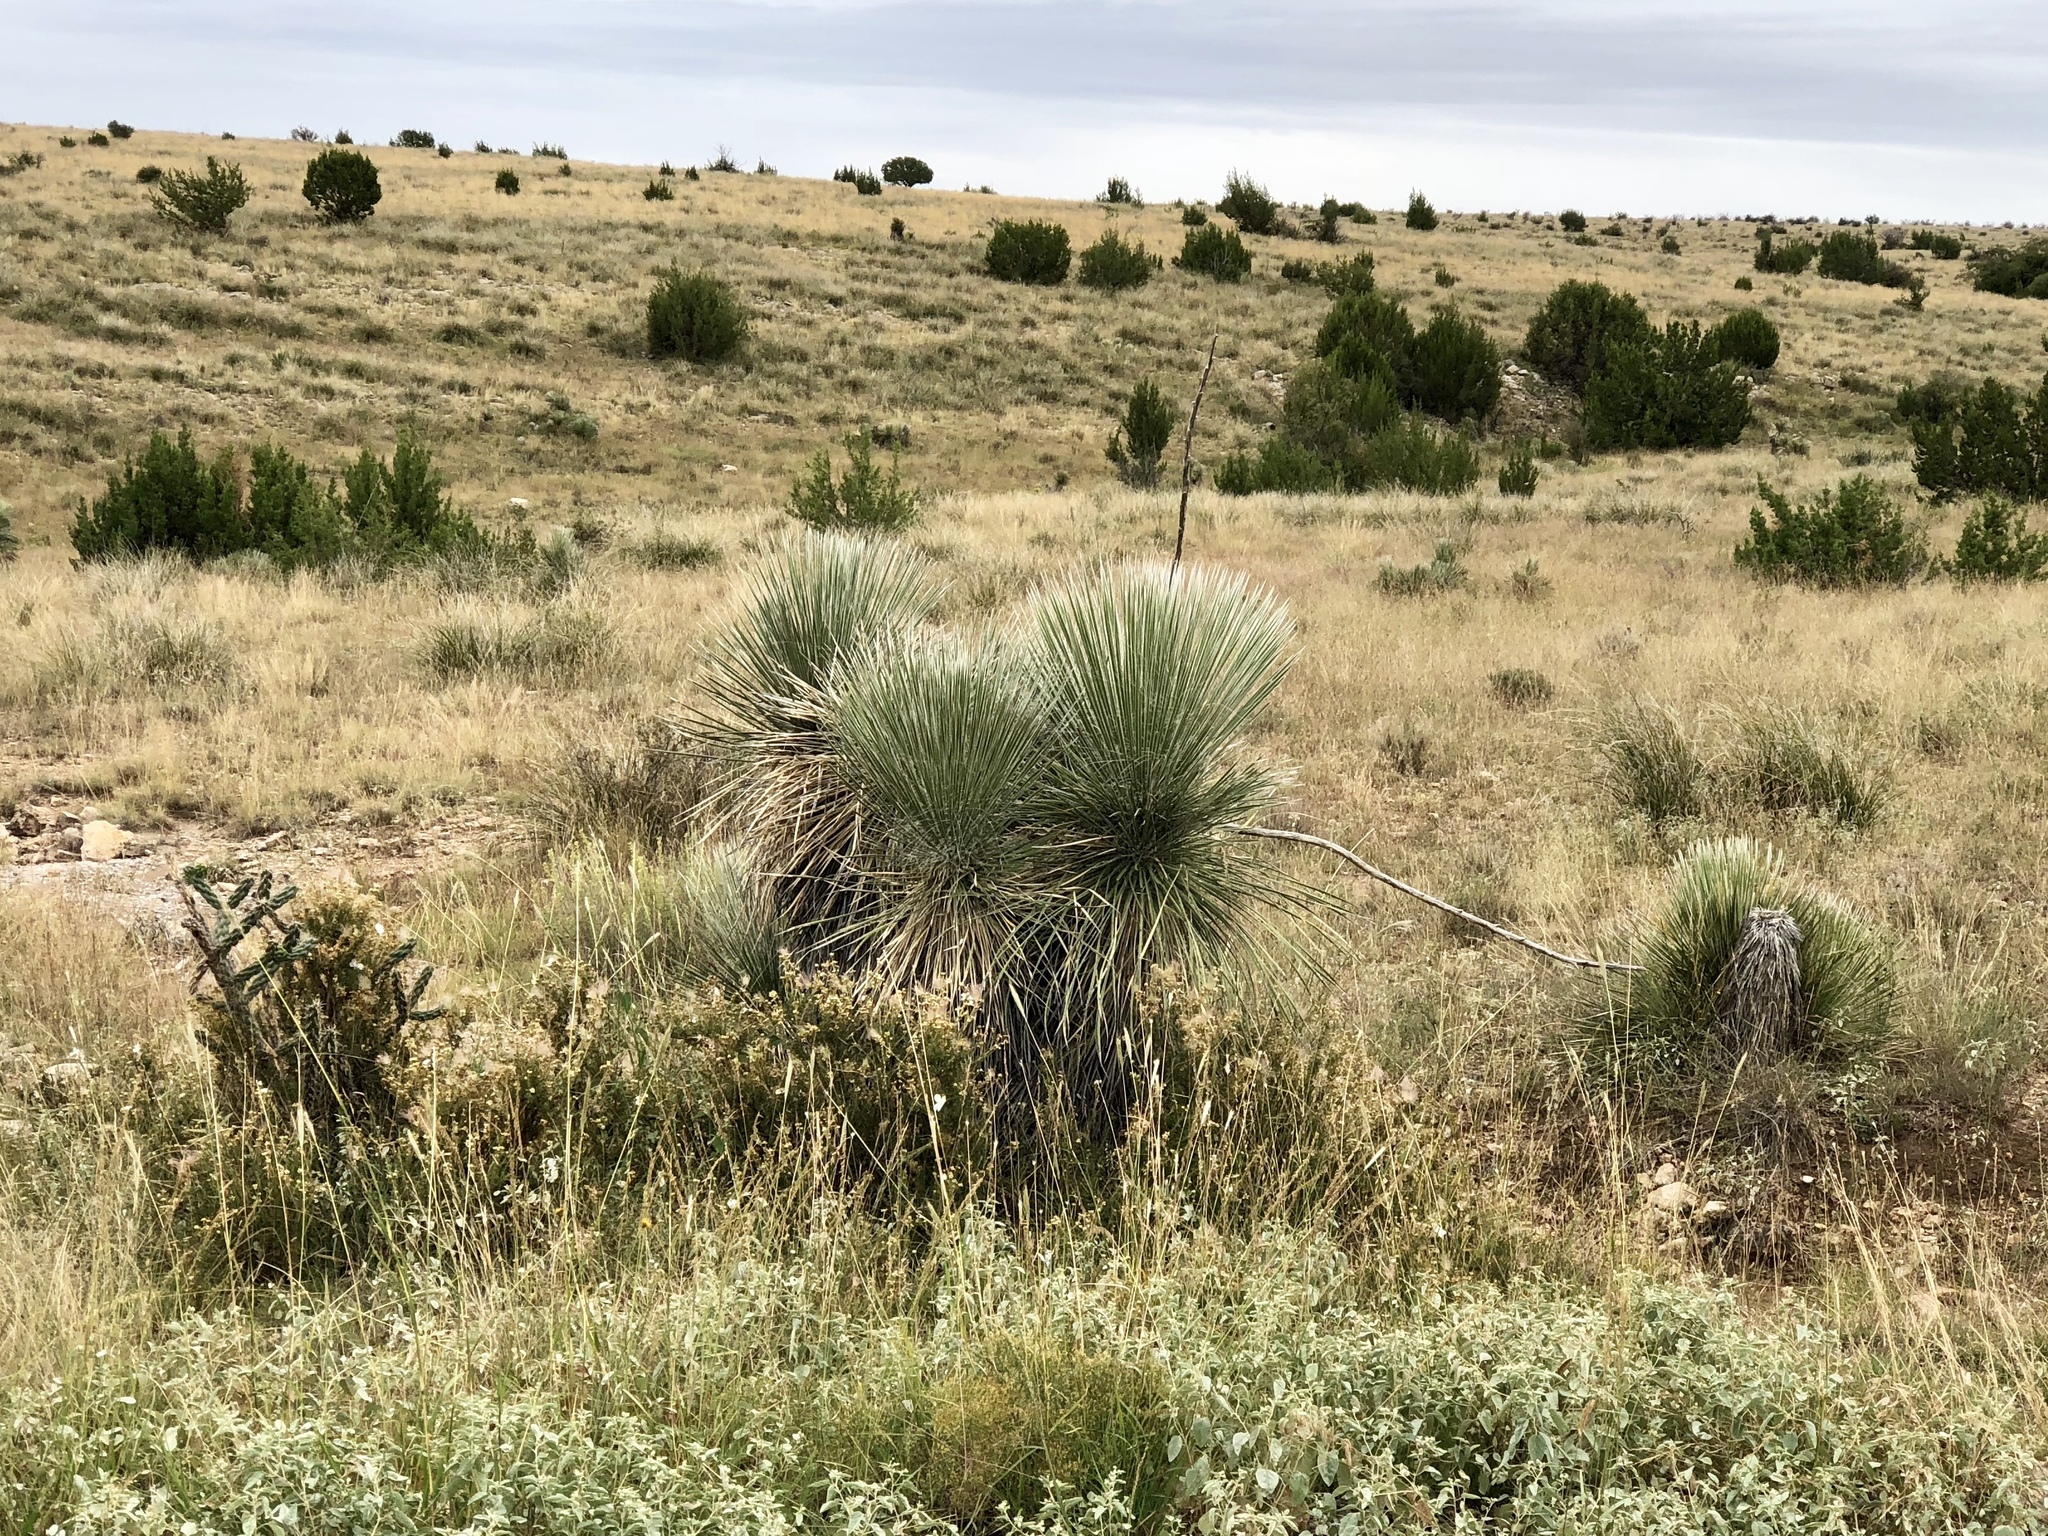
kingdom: Plantae
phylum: Tracheophyta
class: Liliopsida
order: Asparagales
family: Asparagaceae
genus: Yucca
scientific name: Yucca elata
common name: Palmella
